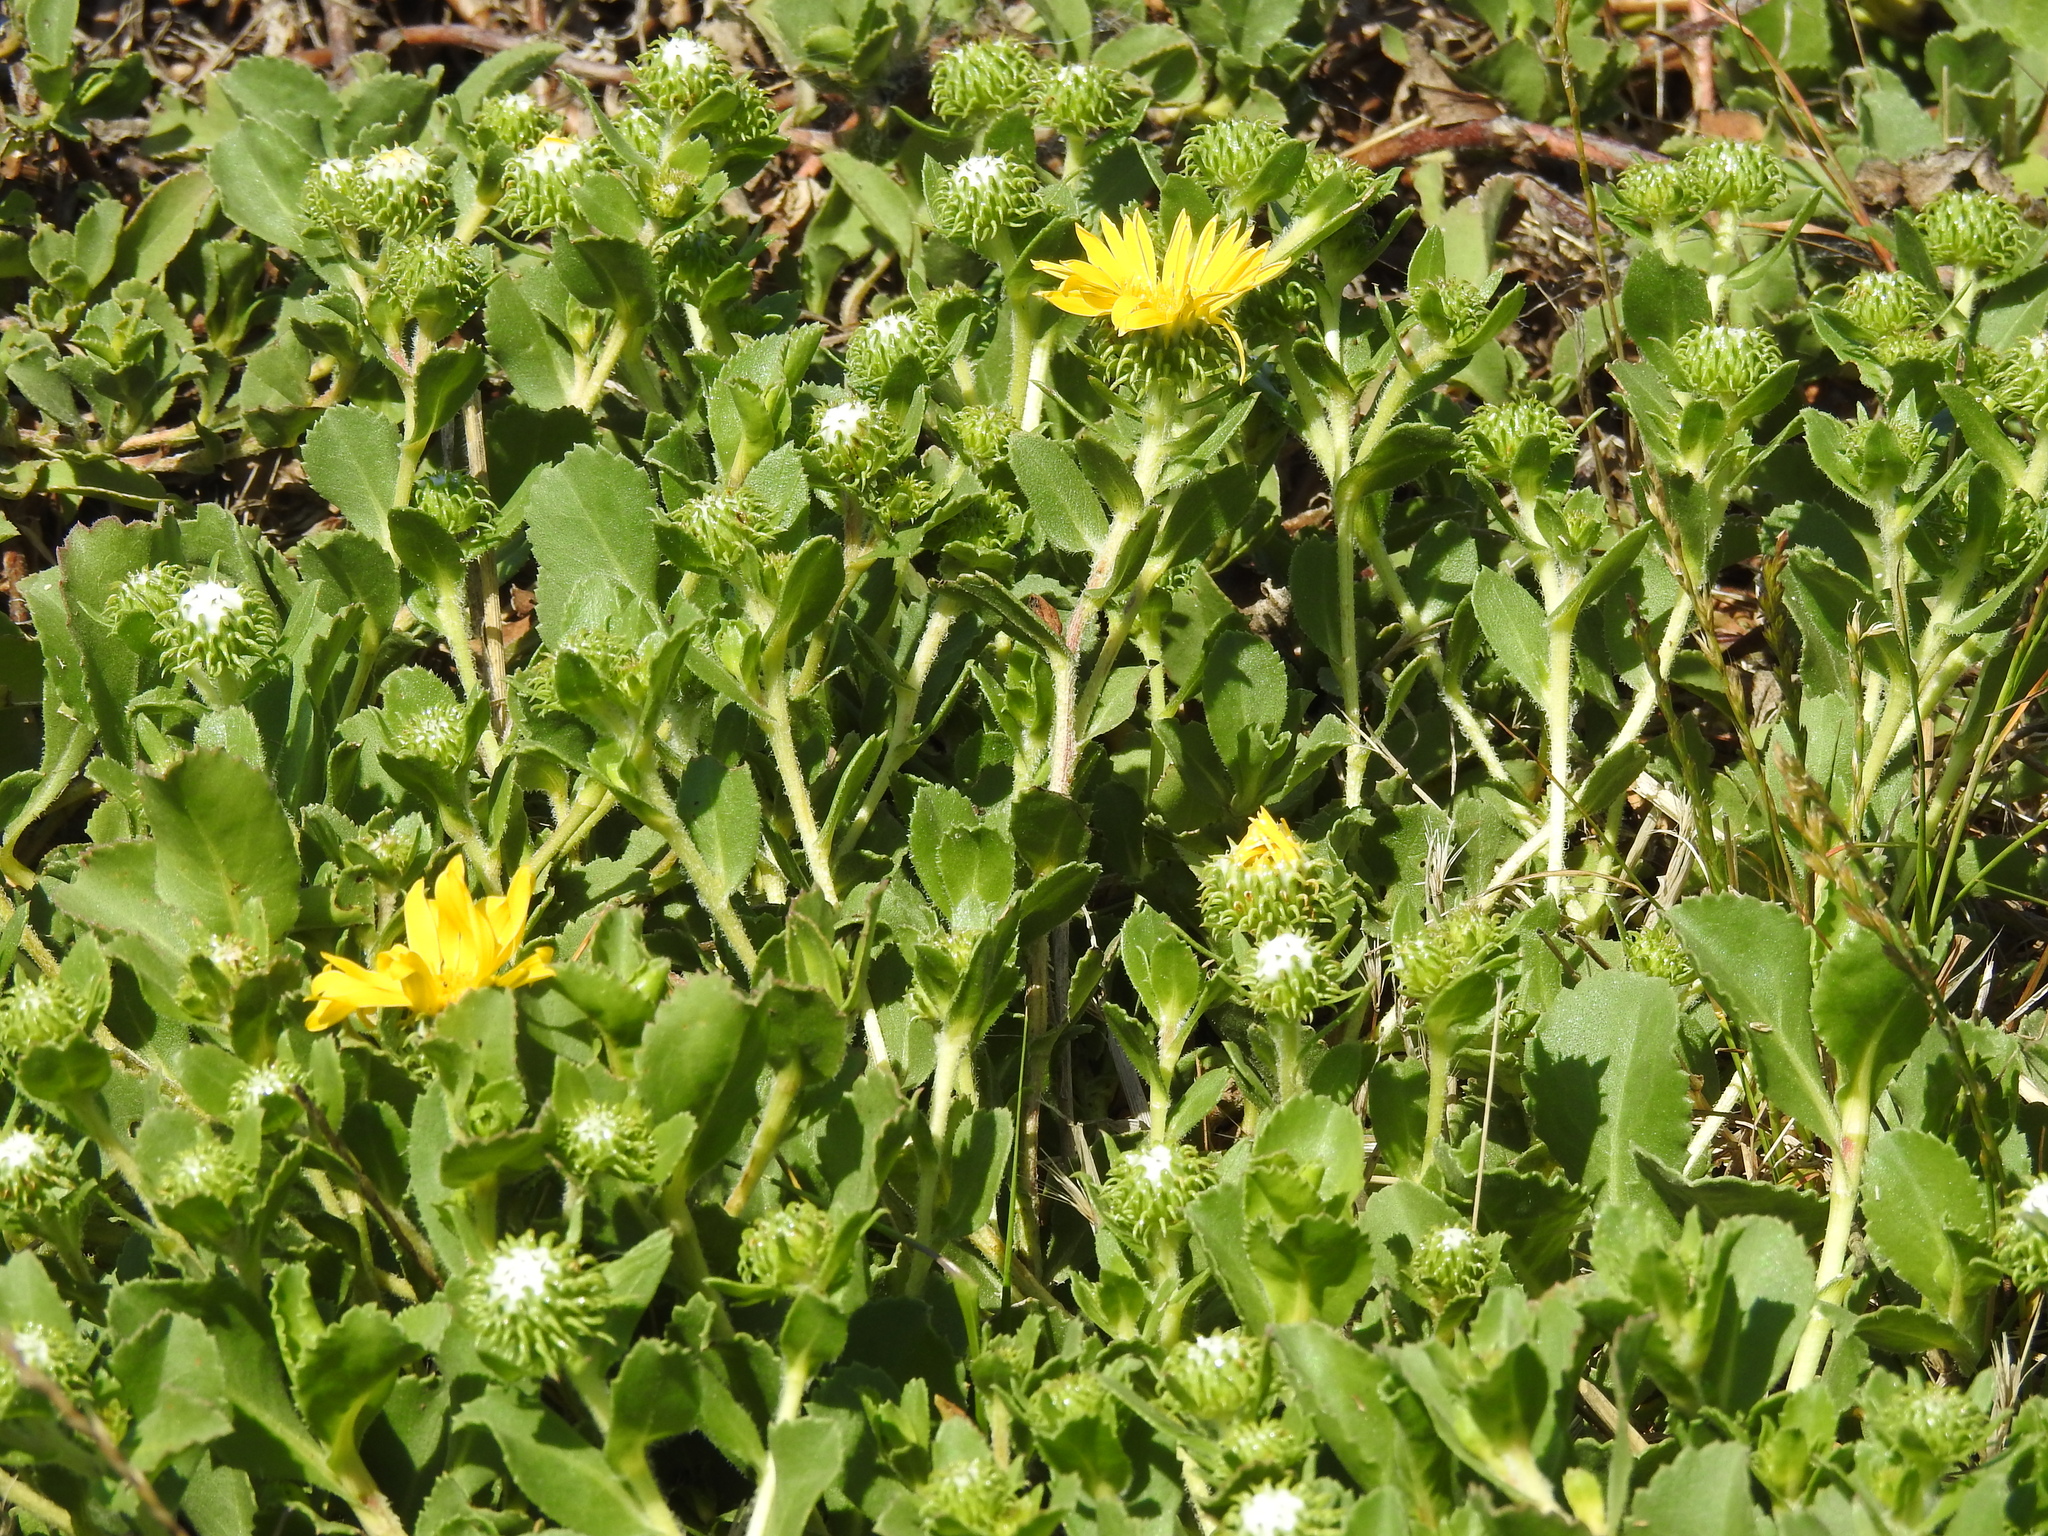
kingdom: Plantae
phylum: Tracheophyta
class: Magnoliopsida
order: Asterales
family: Asteraceae
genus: Grindelia
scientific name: Grindelia hirsutula
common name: Hairy gumweed
